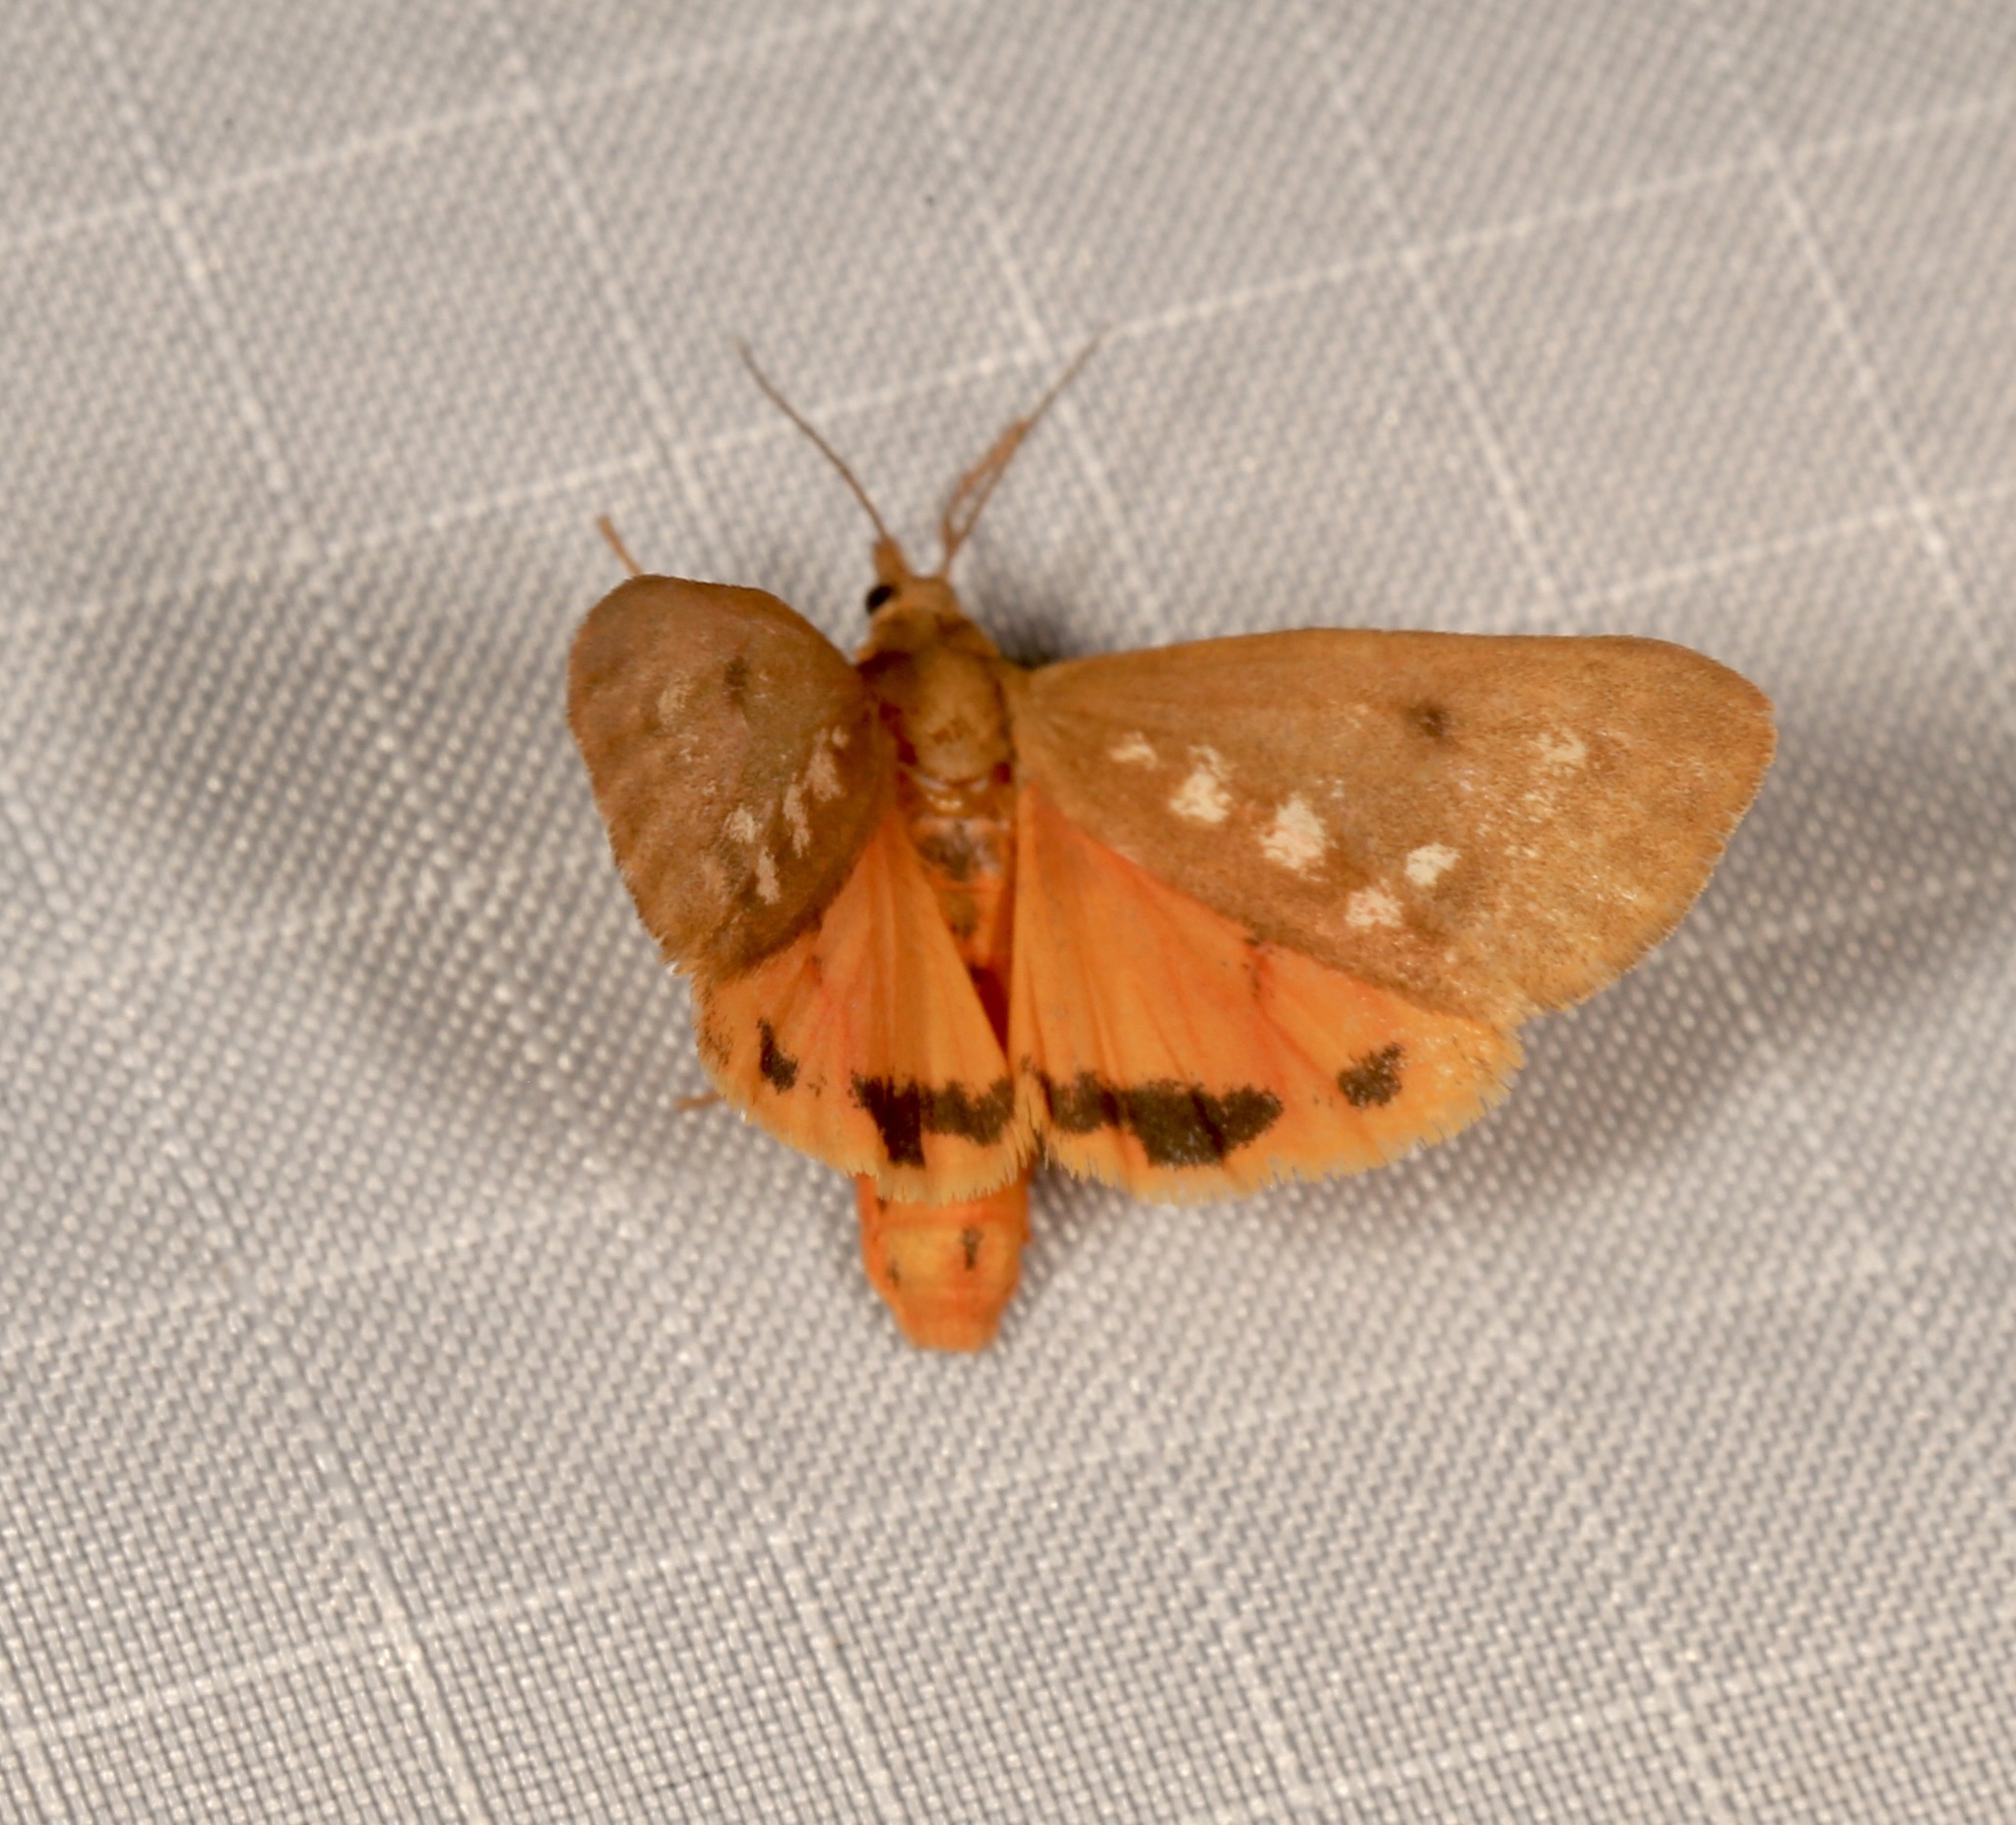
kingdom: Animalia
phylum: Arthropoda
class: Insecta
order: Lepidoptera
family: Erebidae
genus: Virbia
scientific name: Virbia aurantiaca
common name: Orange virbia moth
